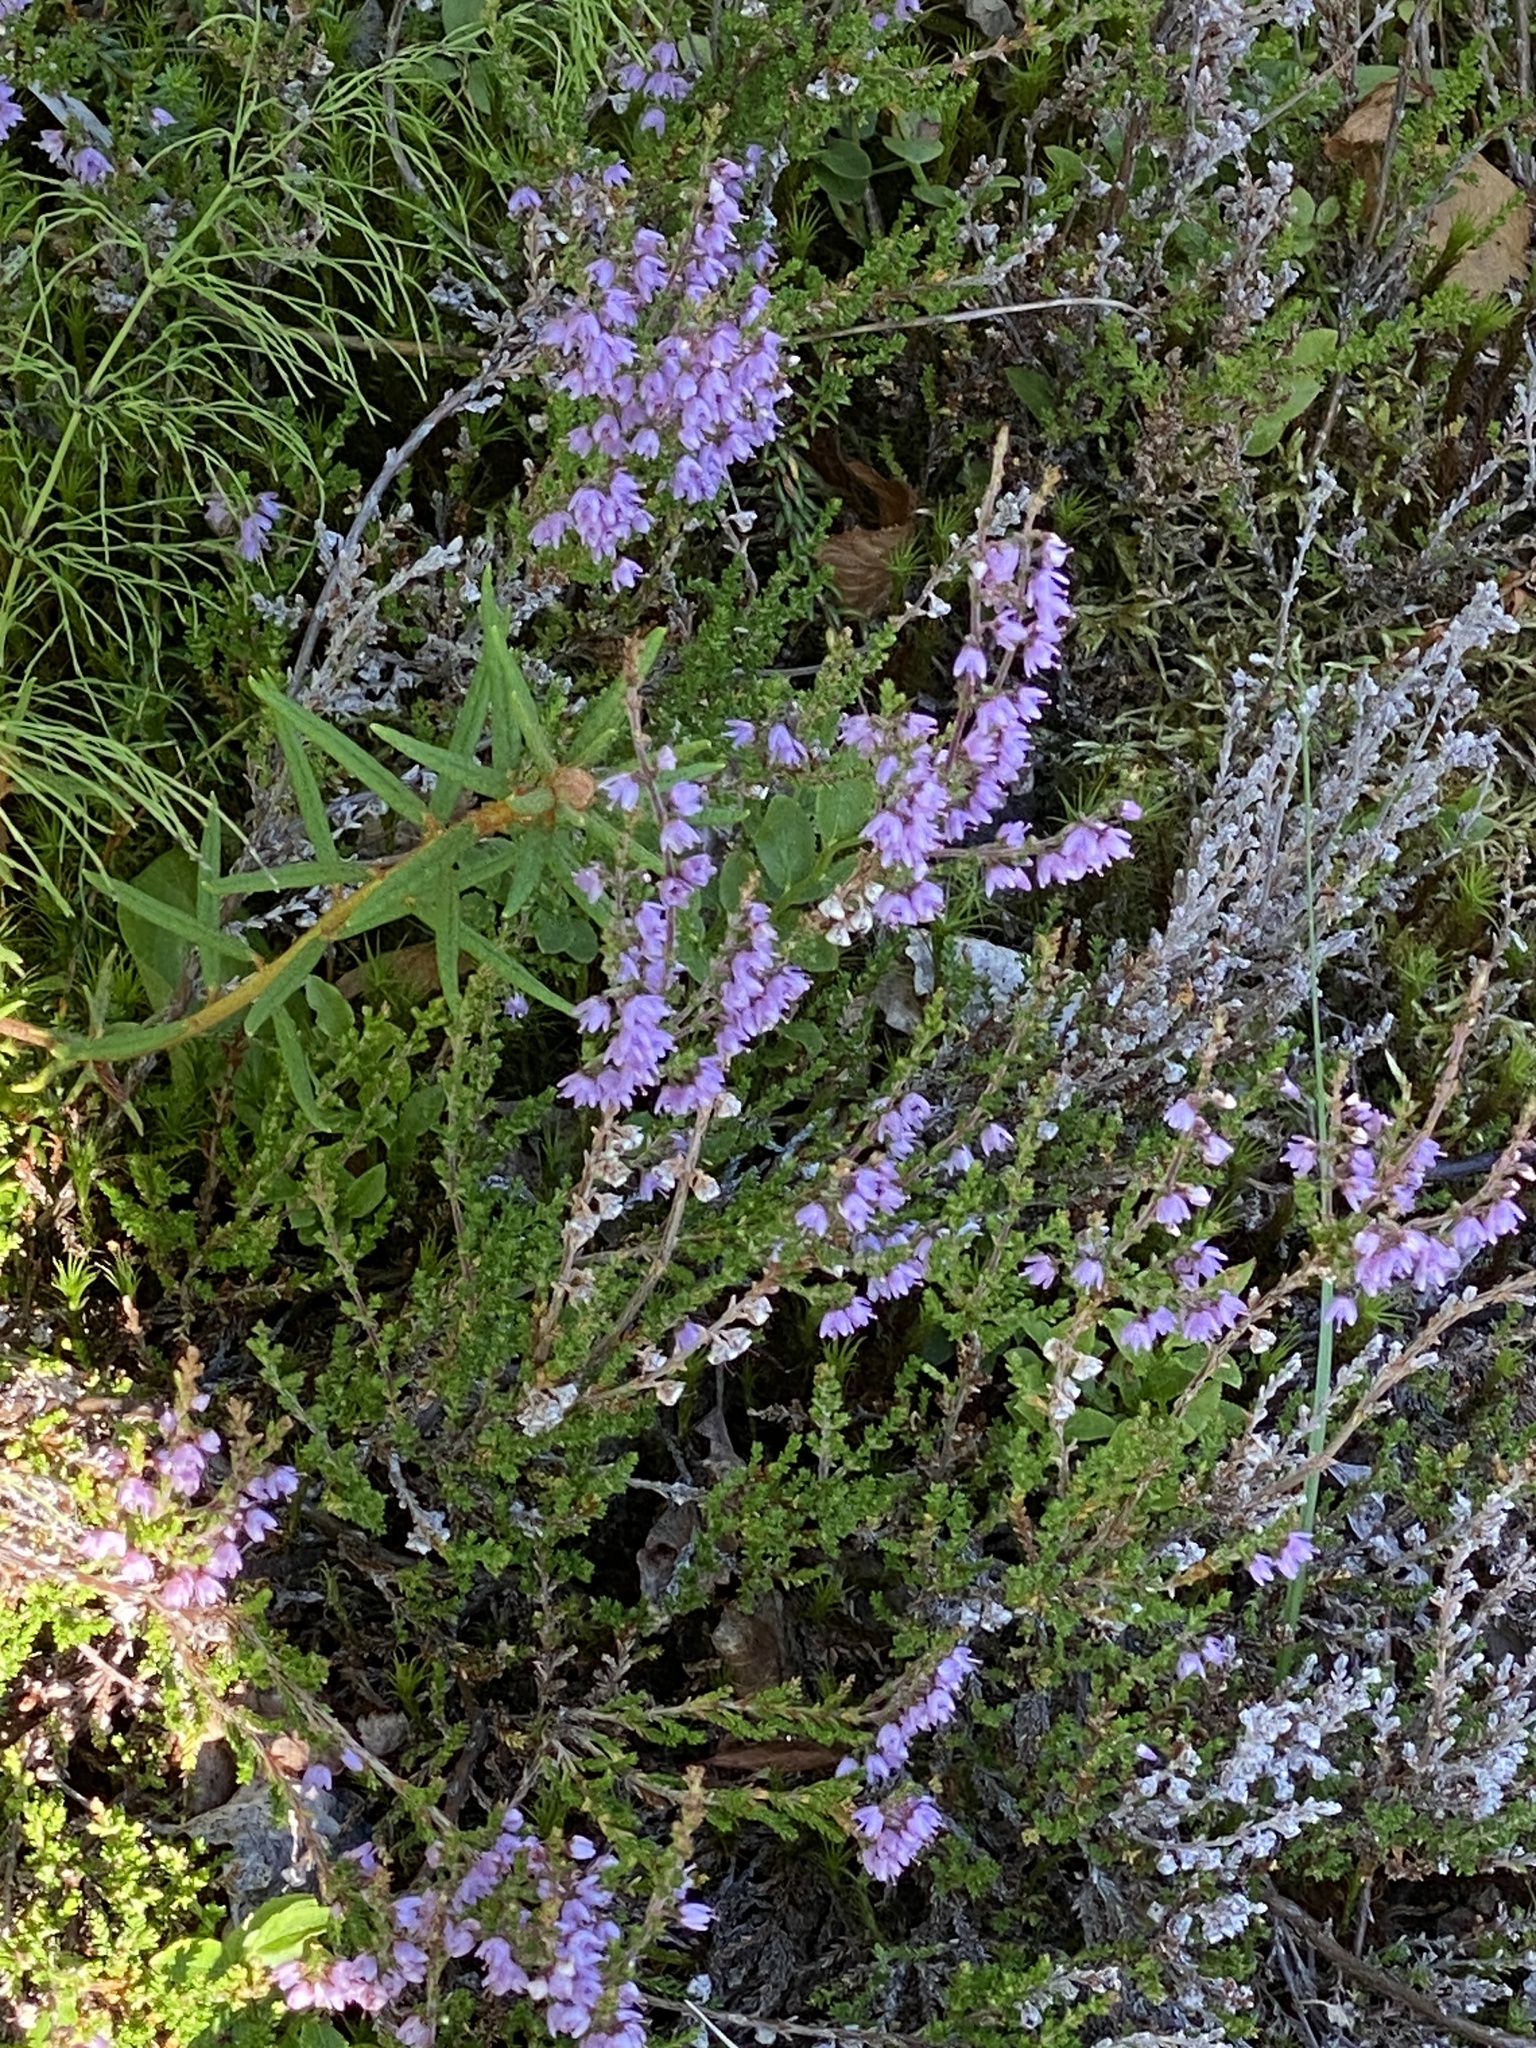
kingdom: Plantae
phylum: Tracheophyta
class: Magnoliopsida
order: Ericales
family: Ericaceae
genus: Calluna
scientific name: Calluna vulgaris
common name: Heather
